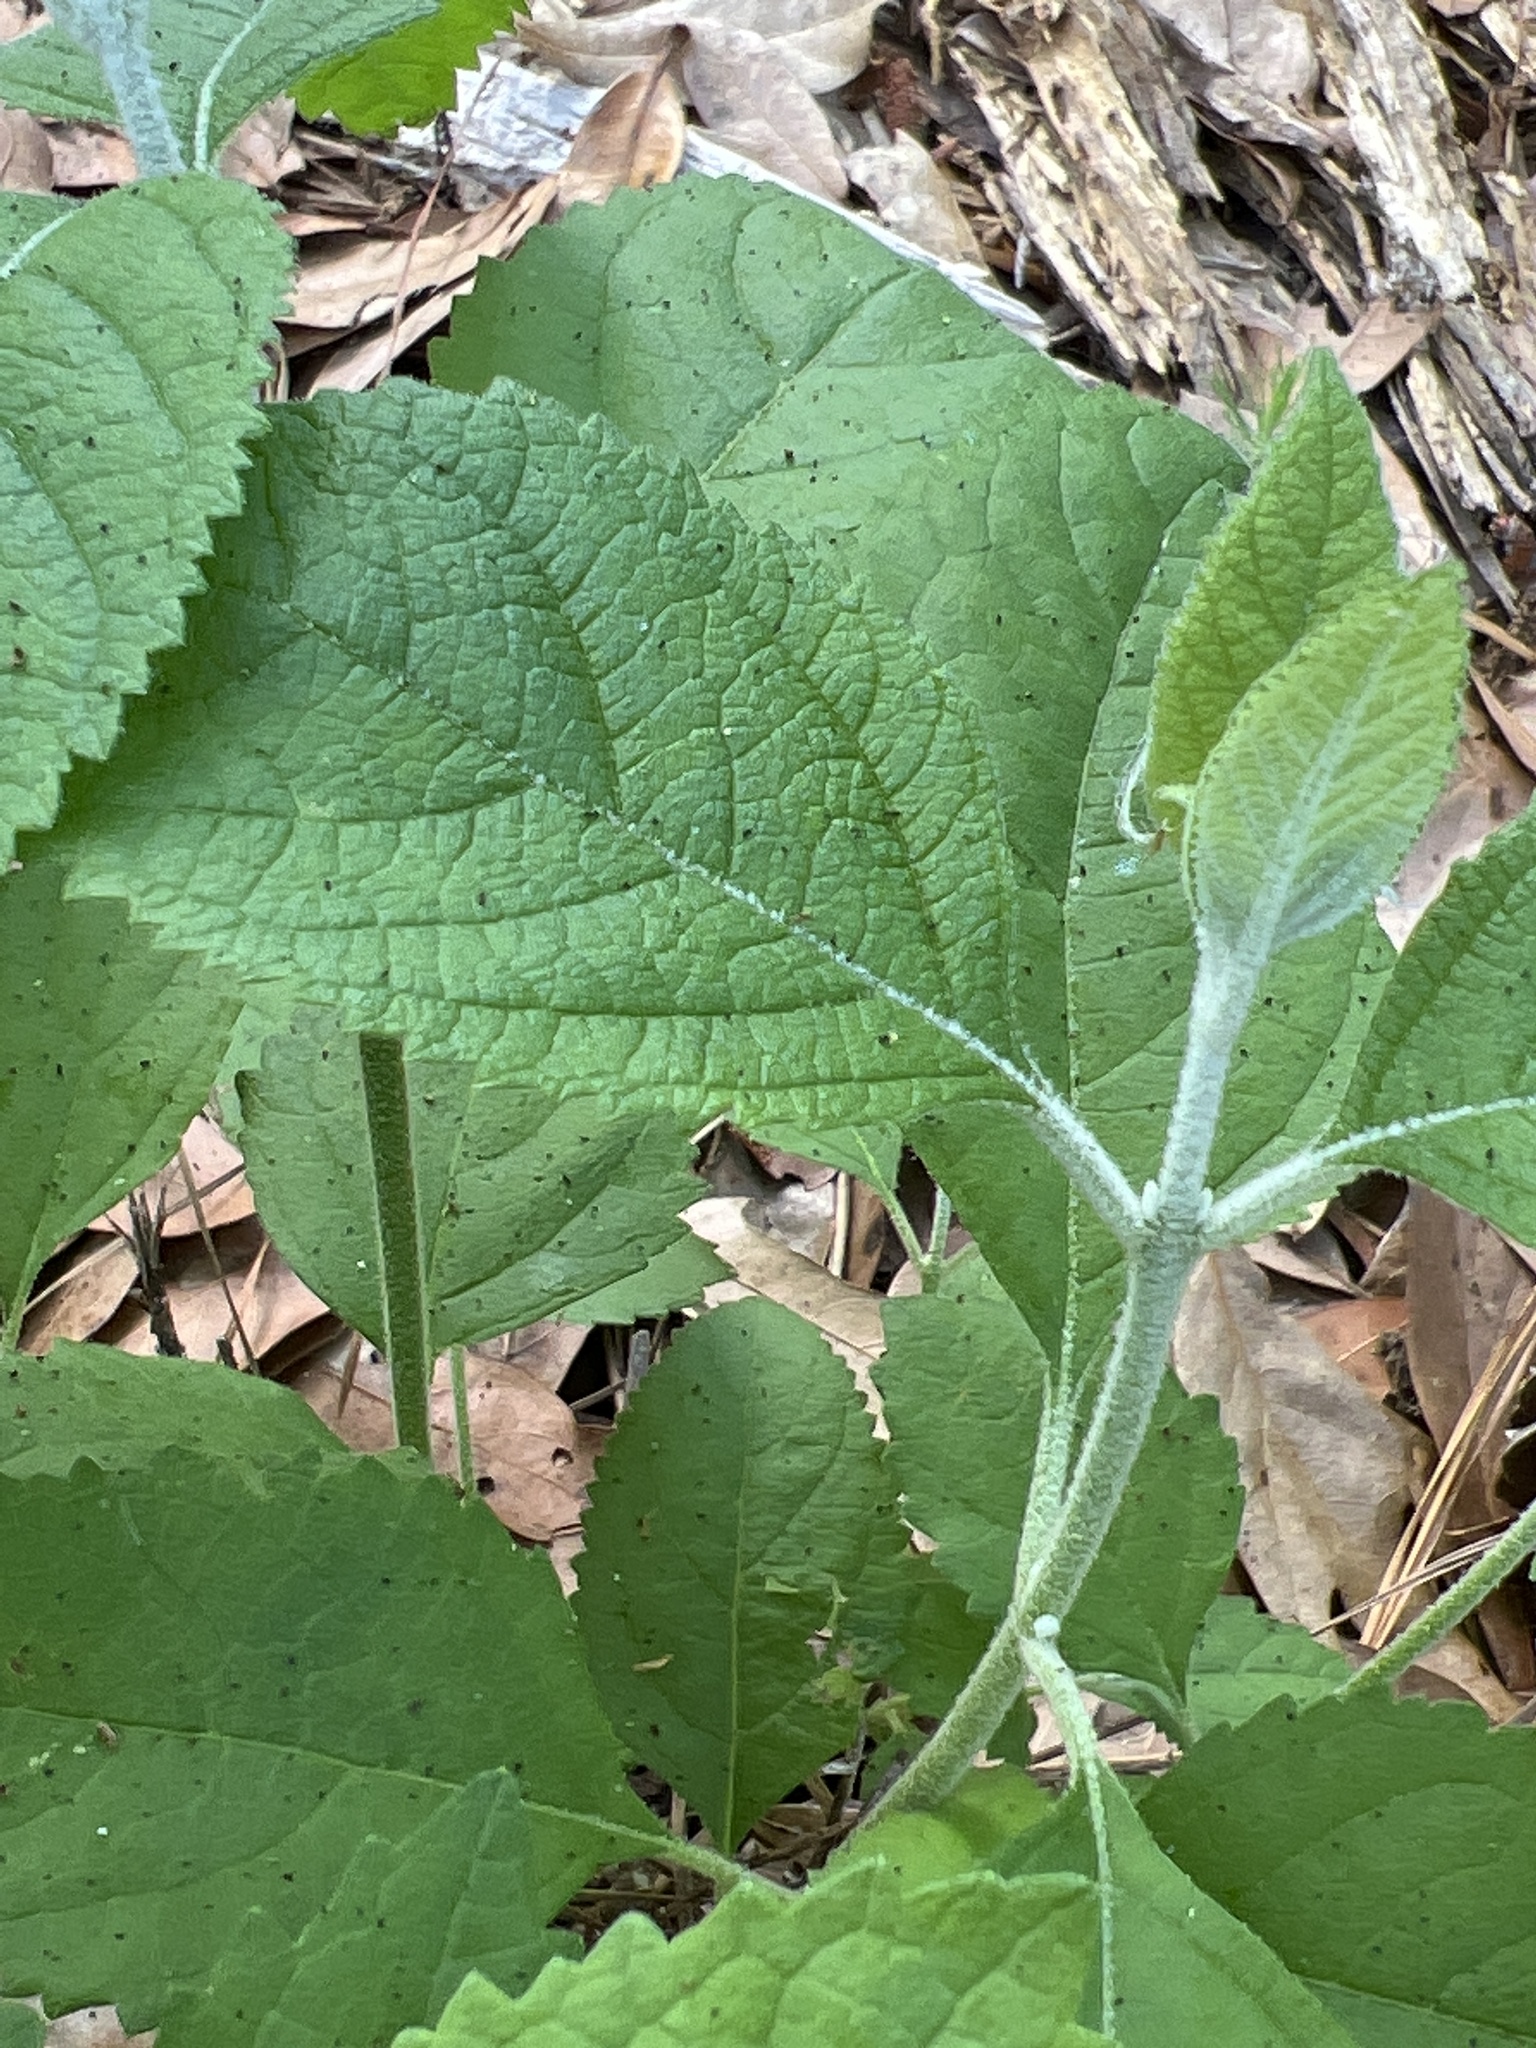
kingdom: Plantae
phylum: Tracheophyta
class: Magnoliopsida
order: Lamiales
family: Lamiaceae
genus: Callicarpa
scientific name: Callicarpa americana
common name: American beautyberry
